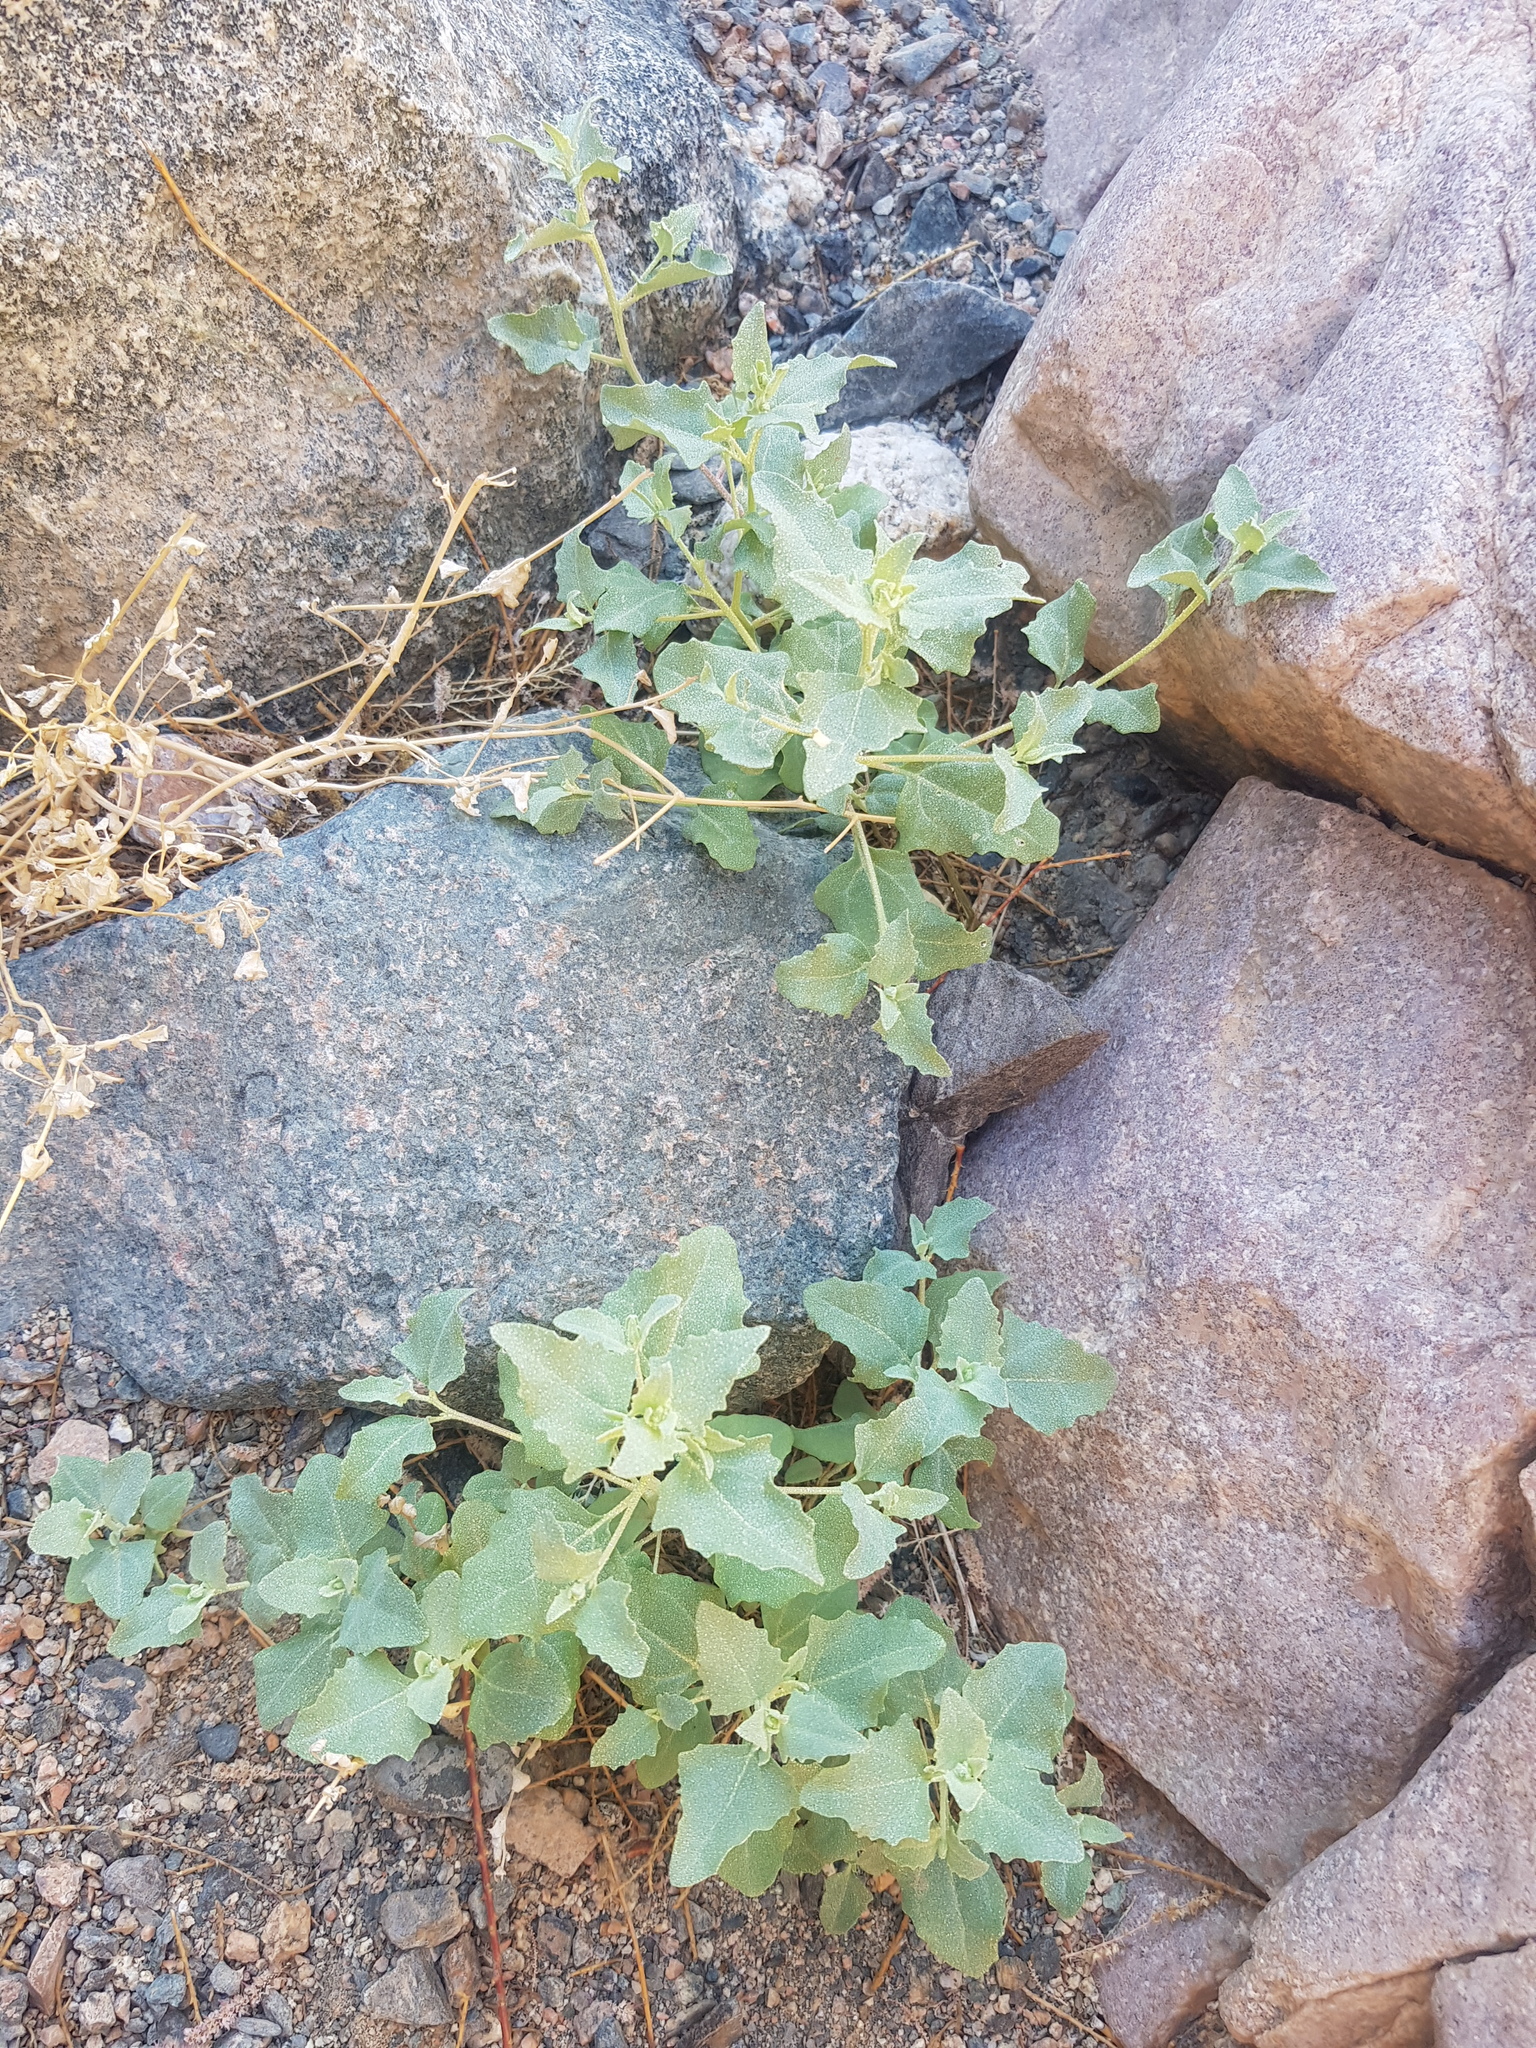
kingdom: Plantae
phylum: Tracheophyta
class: Magnoliopsida
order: Caryophyllales
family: Amaranthaceae
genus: Atriplex
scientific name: Atriplex sibirica
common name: Siberian saltbush
